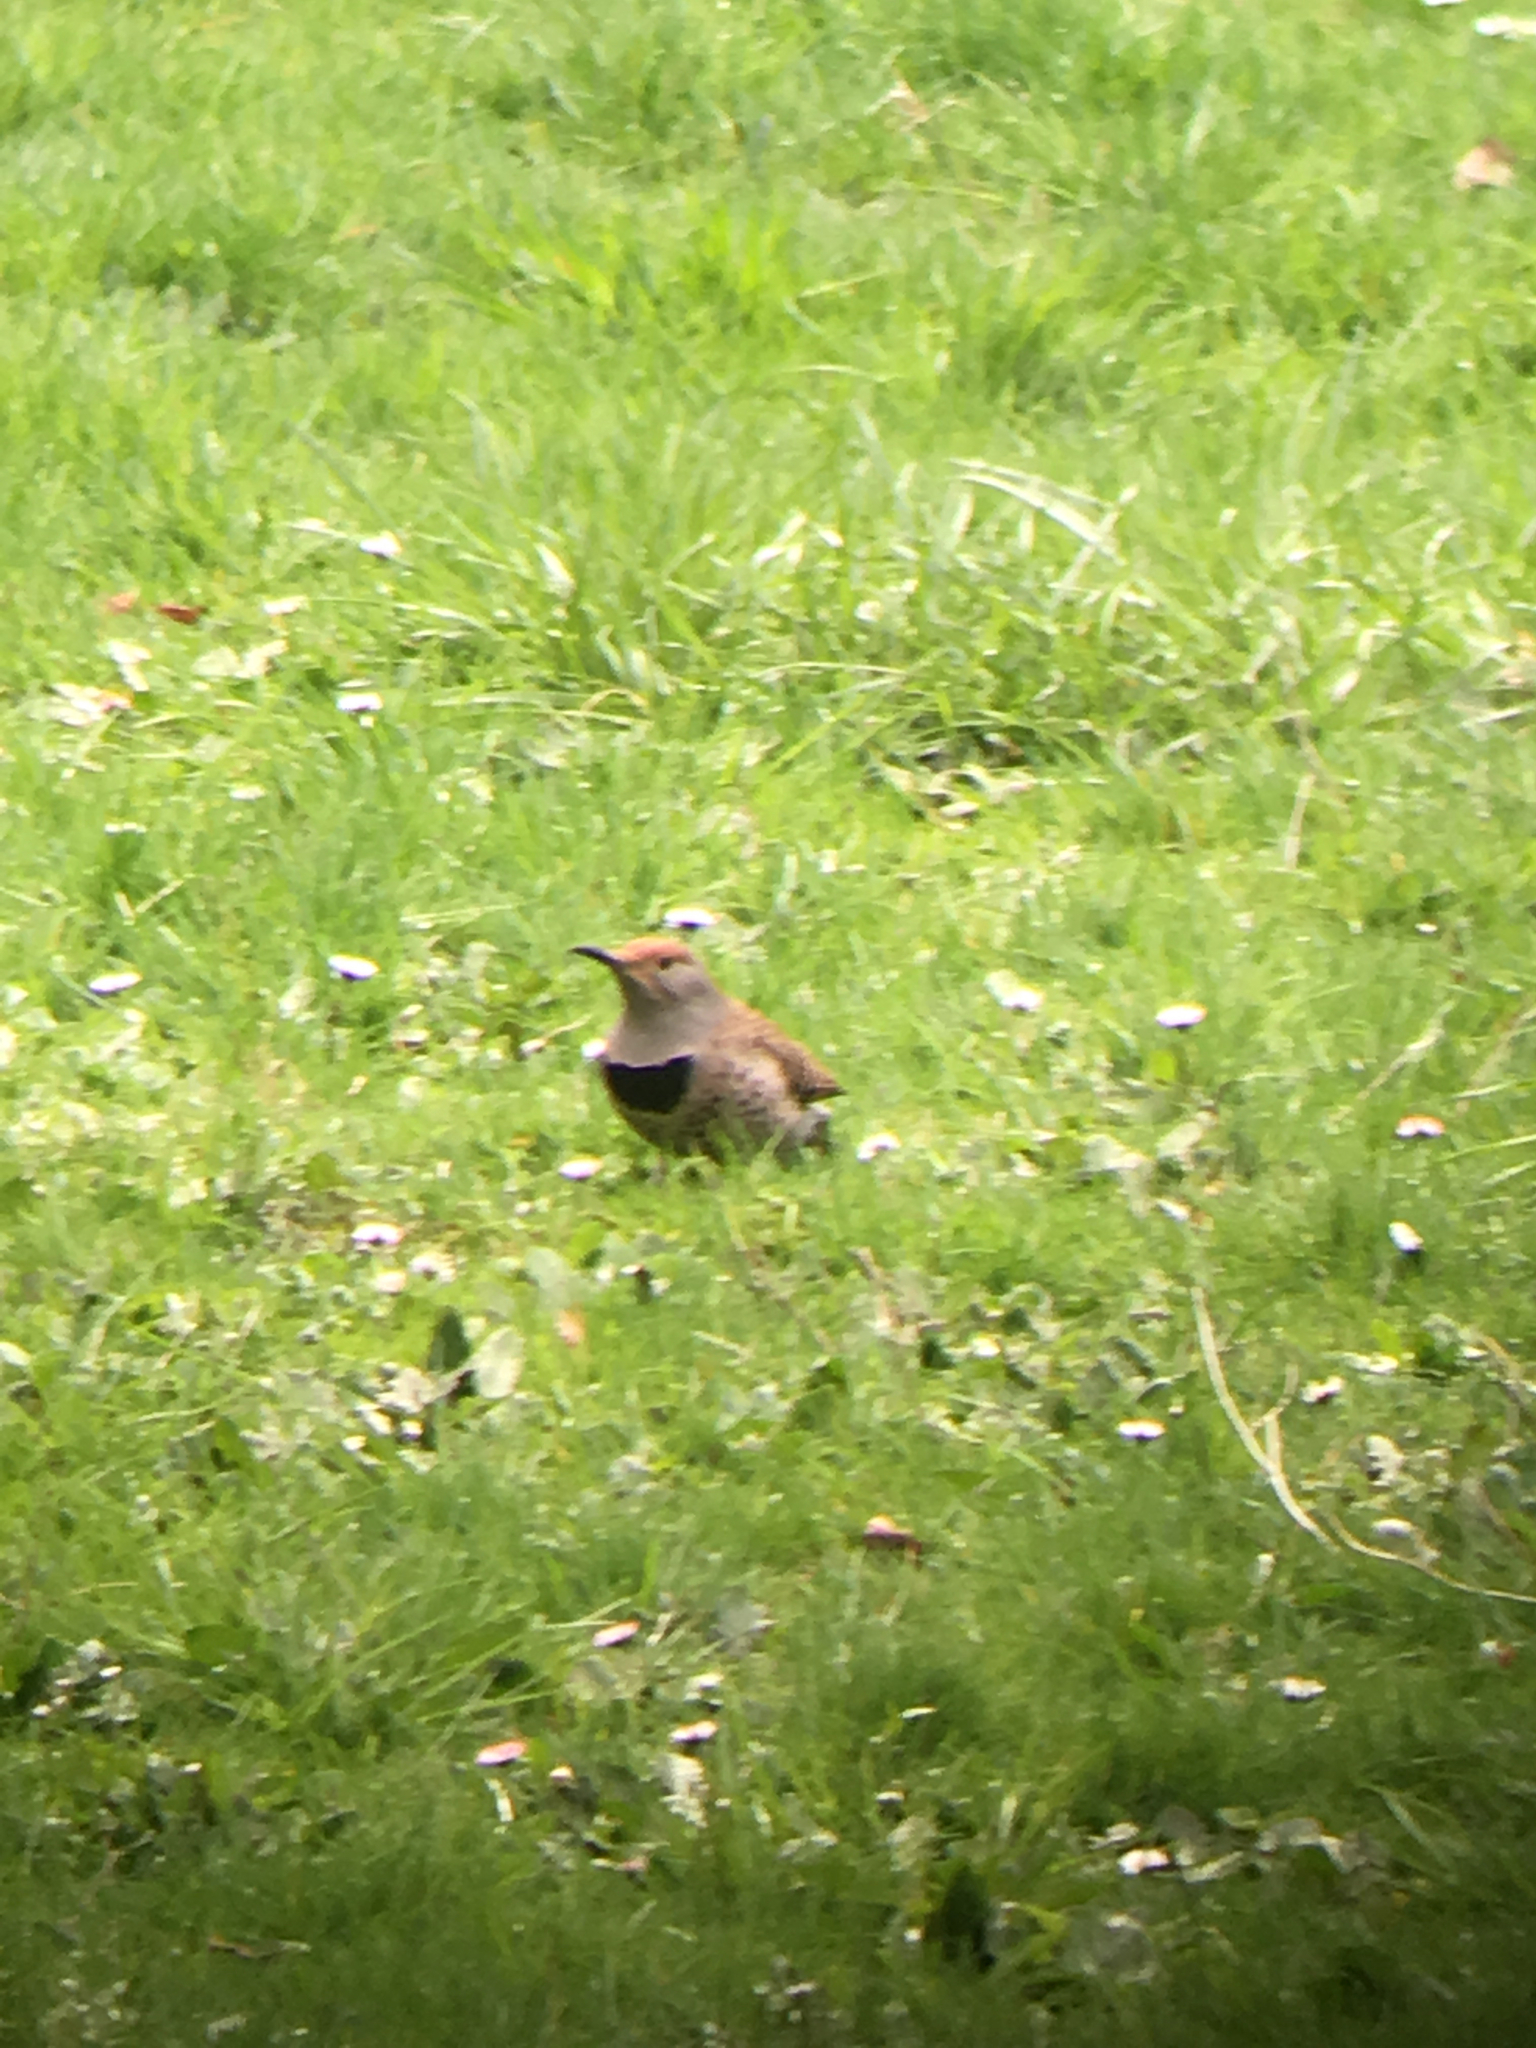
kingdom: Animalia
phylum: Chordata
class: Aves
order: Piciformes
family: Picidae
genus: Colaptes
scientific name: Colaptes auratus
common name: Northern flicker
